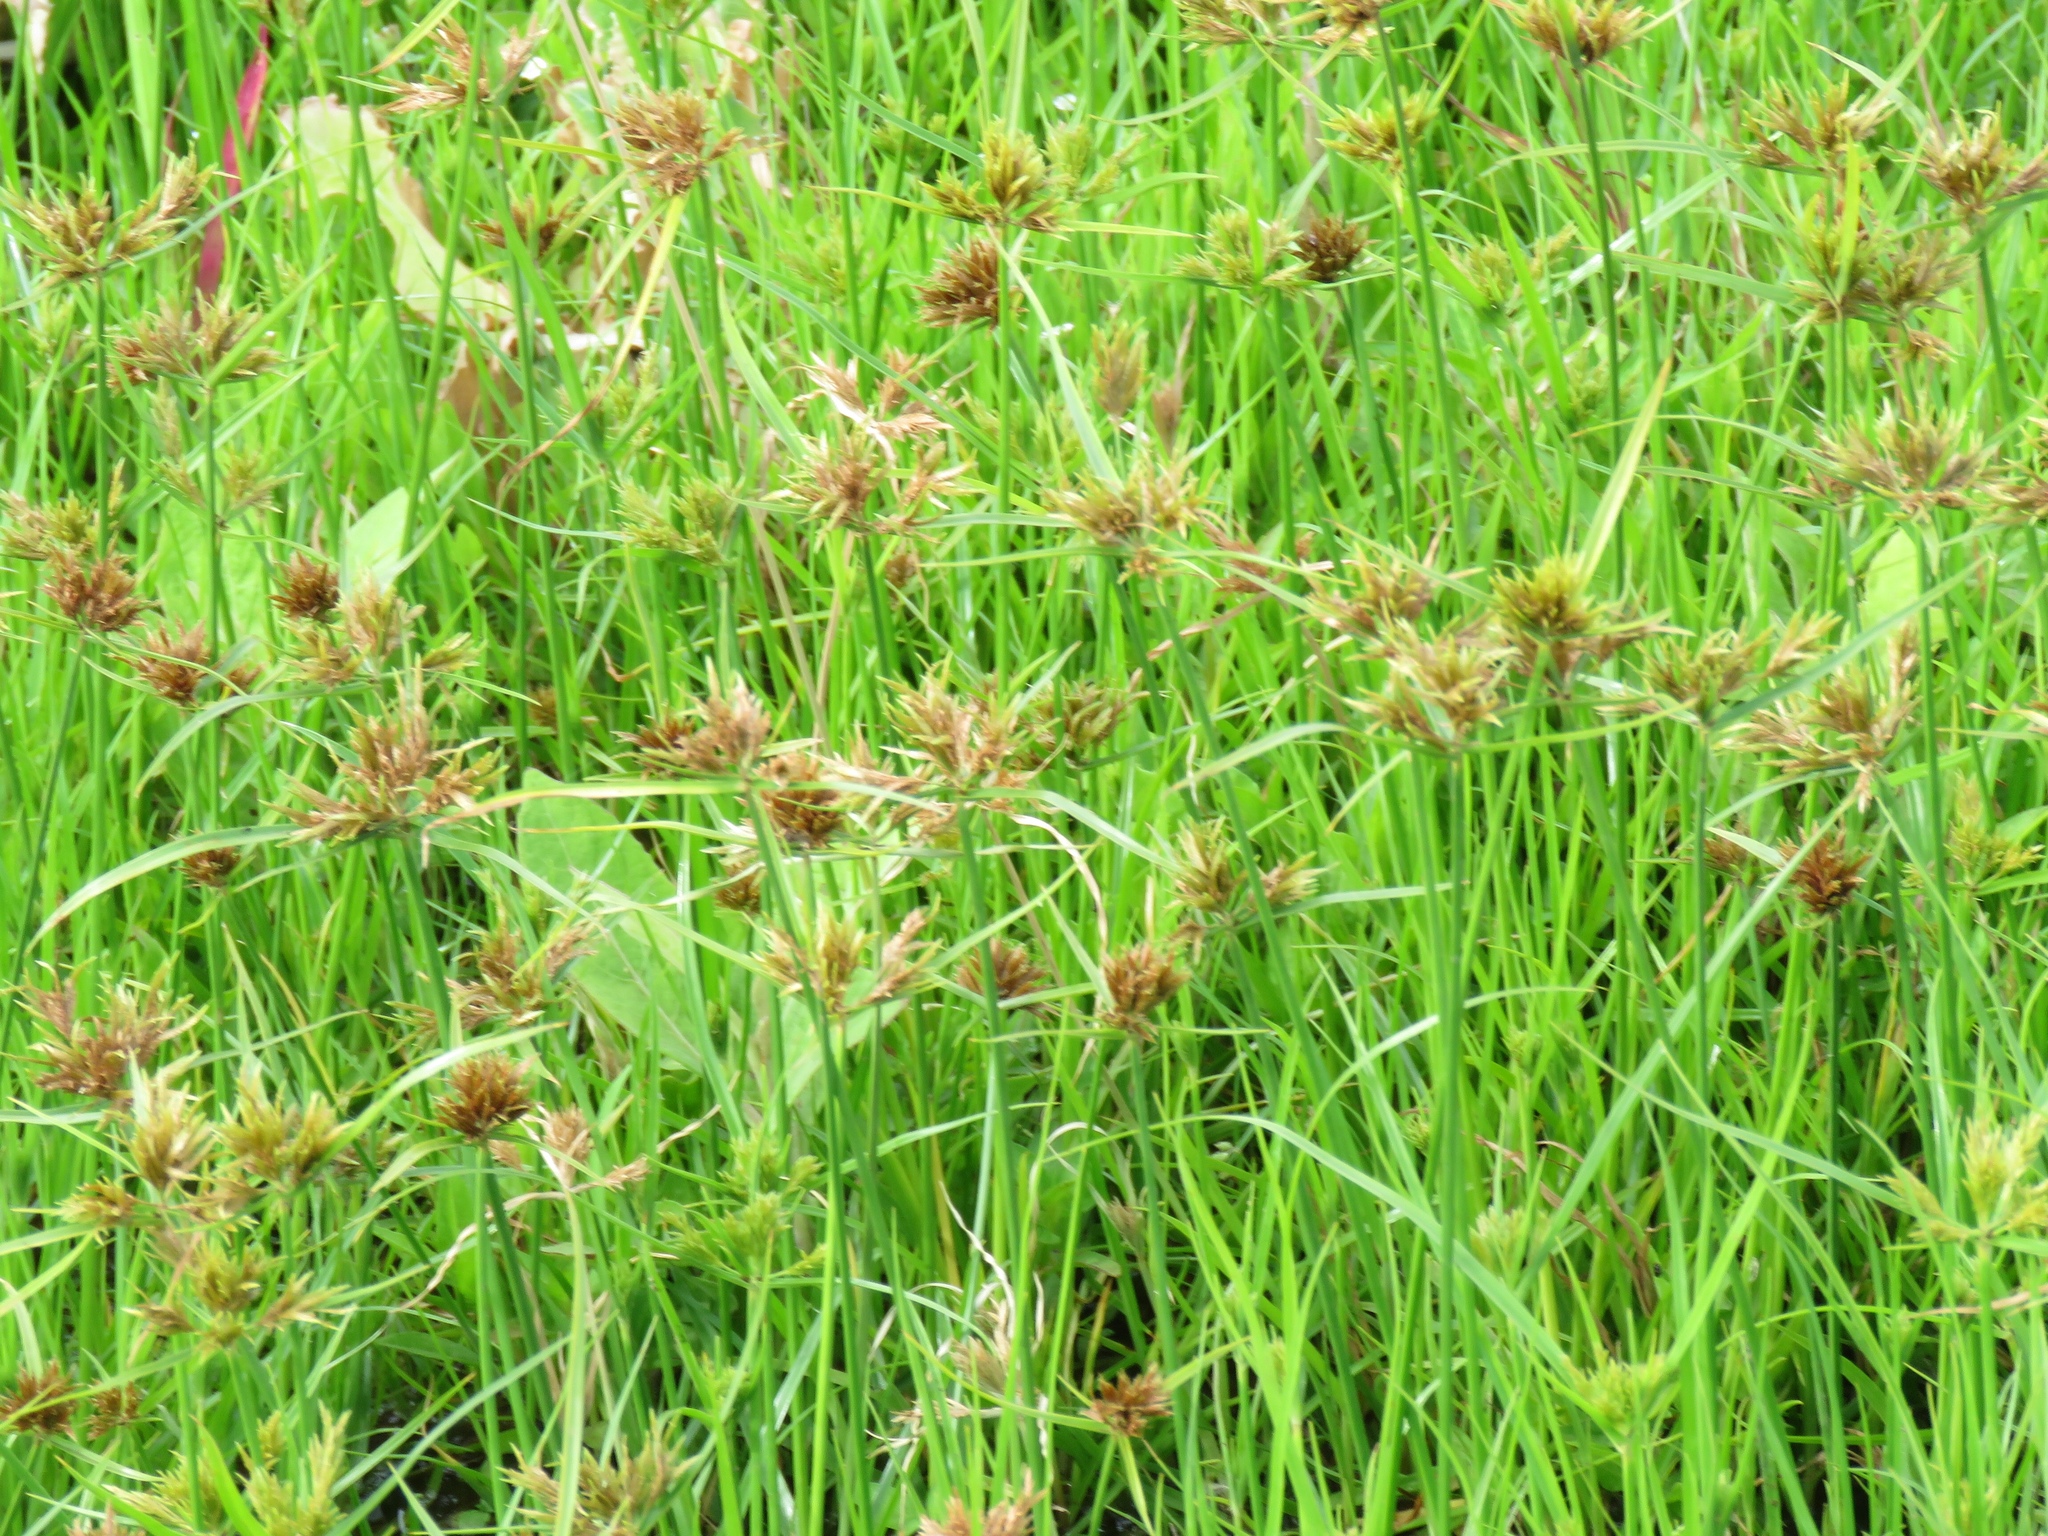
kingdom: Plantae
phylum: Tracheophyta
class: Liliopsida
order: Poales
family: Cyperaceae
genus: Cyperus
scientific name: Cyperus polystachyos
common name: Bunchy flat sedge
